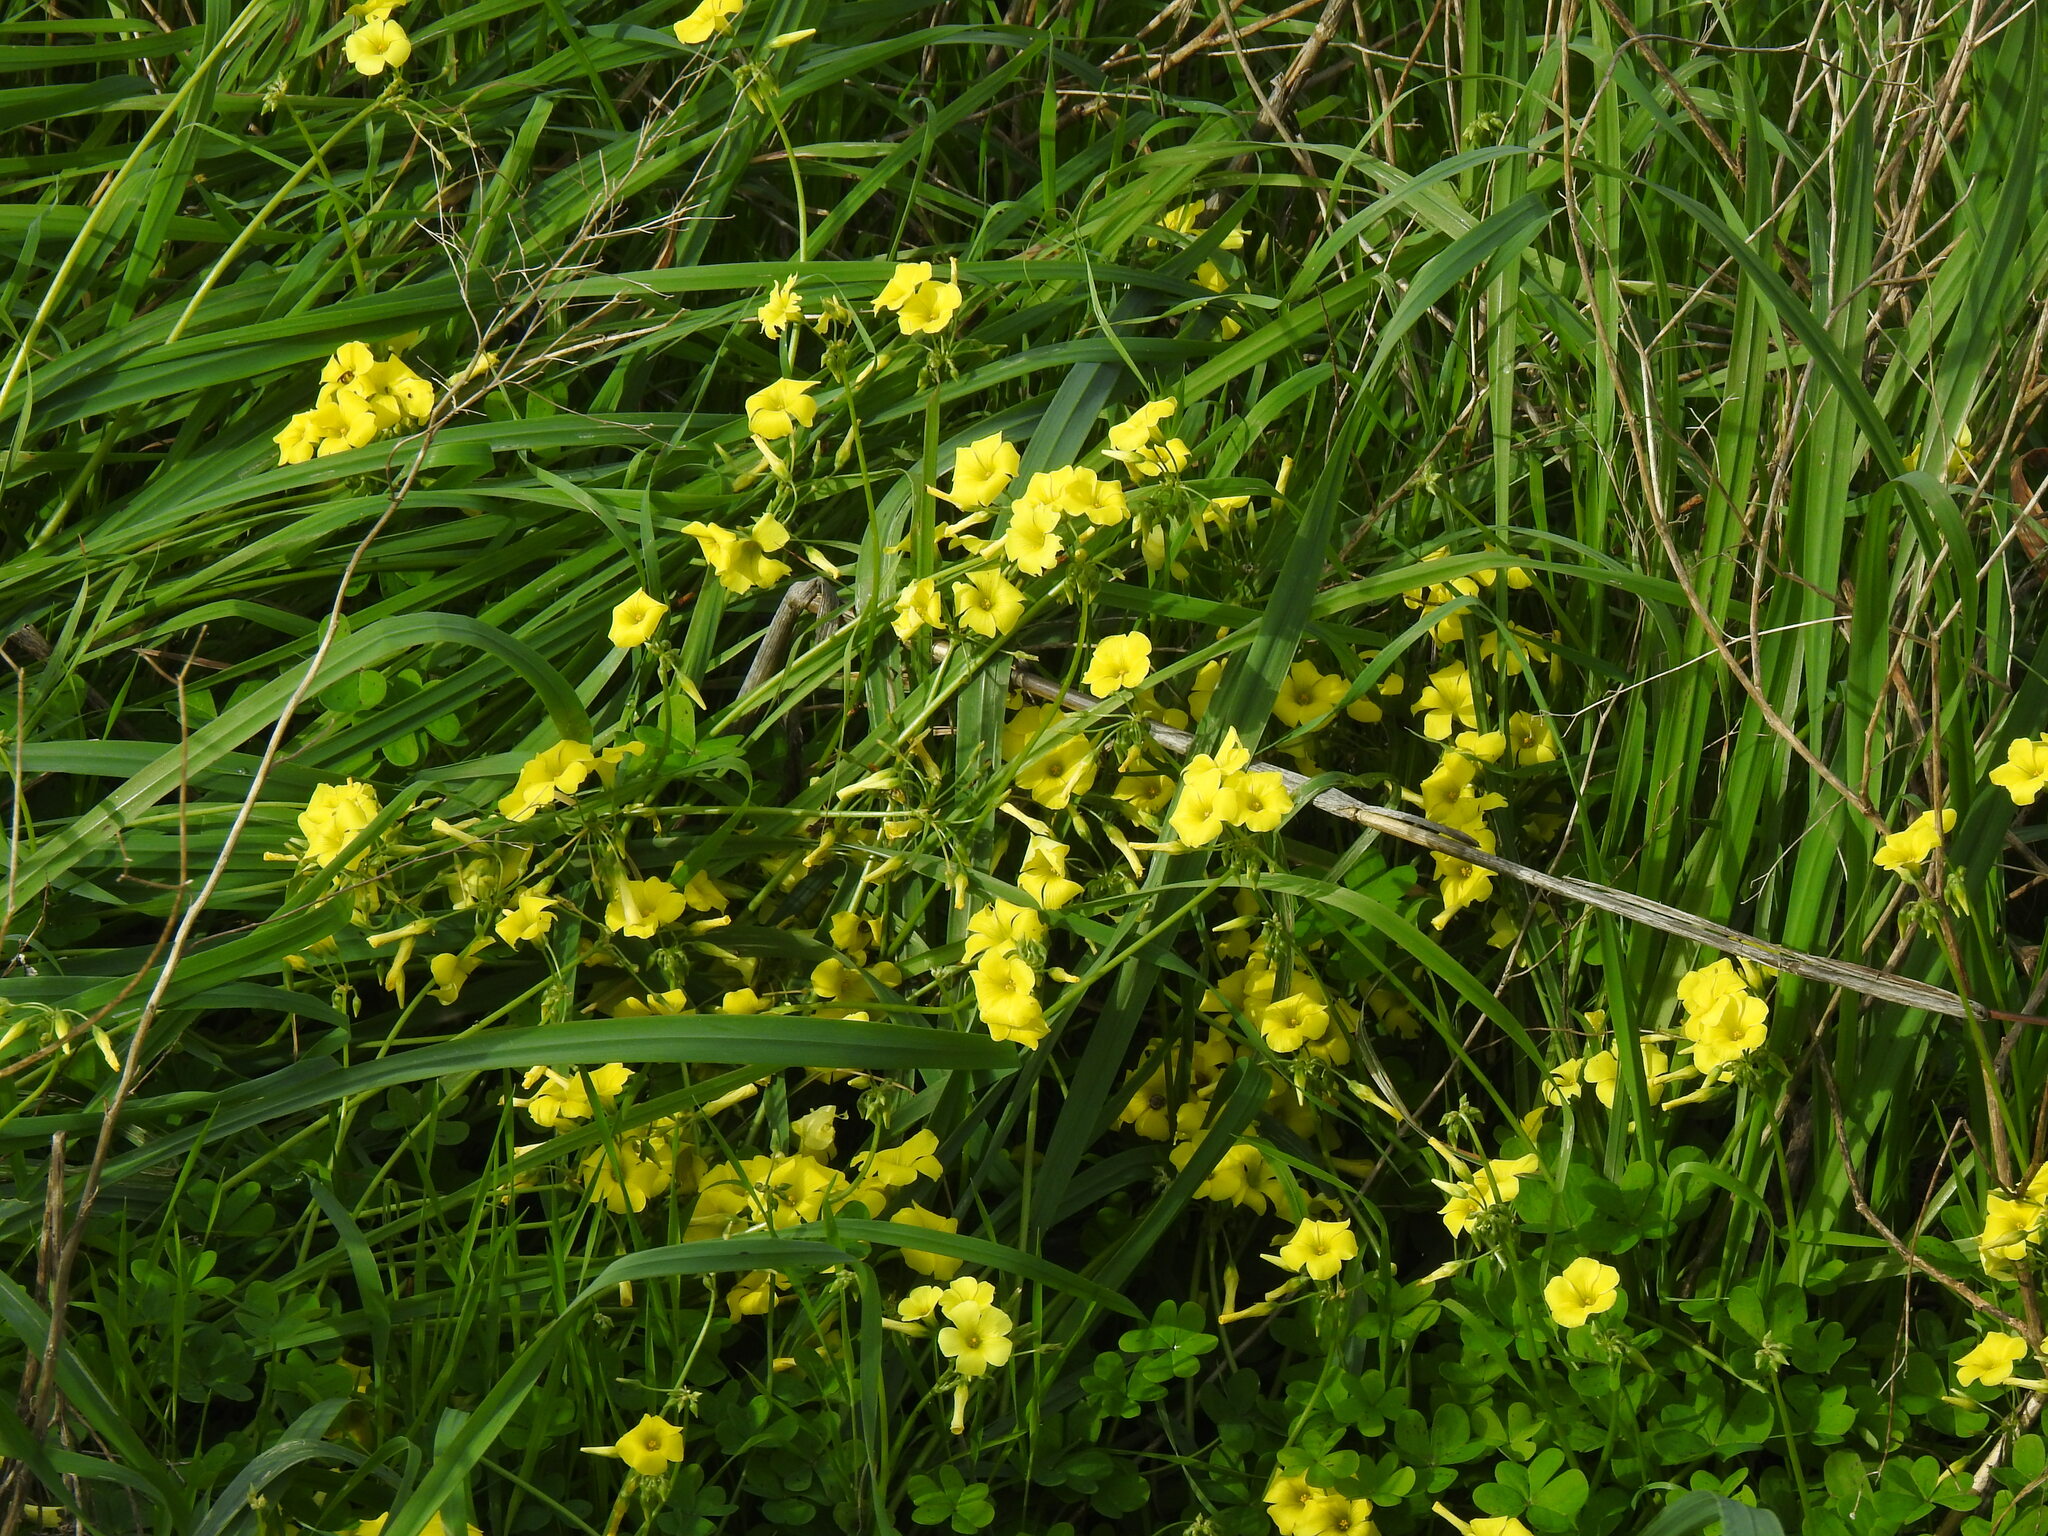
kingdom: Plantae
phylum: Tracheophyta
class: Magnoliopsida
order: Oxalidales
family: Oxalidaceae
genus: Oxalis
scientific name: Oxalis pes-caprae
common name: Bermuda-buttercup
